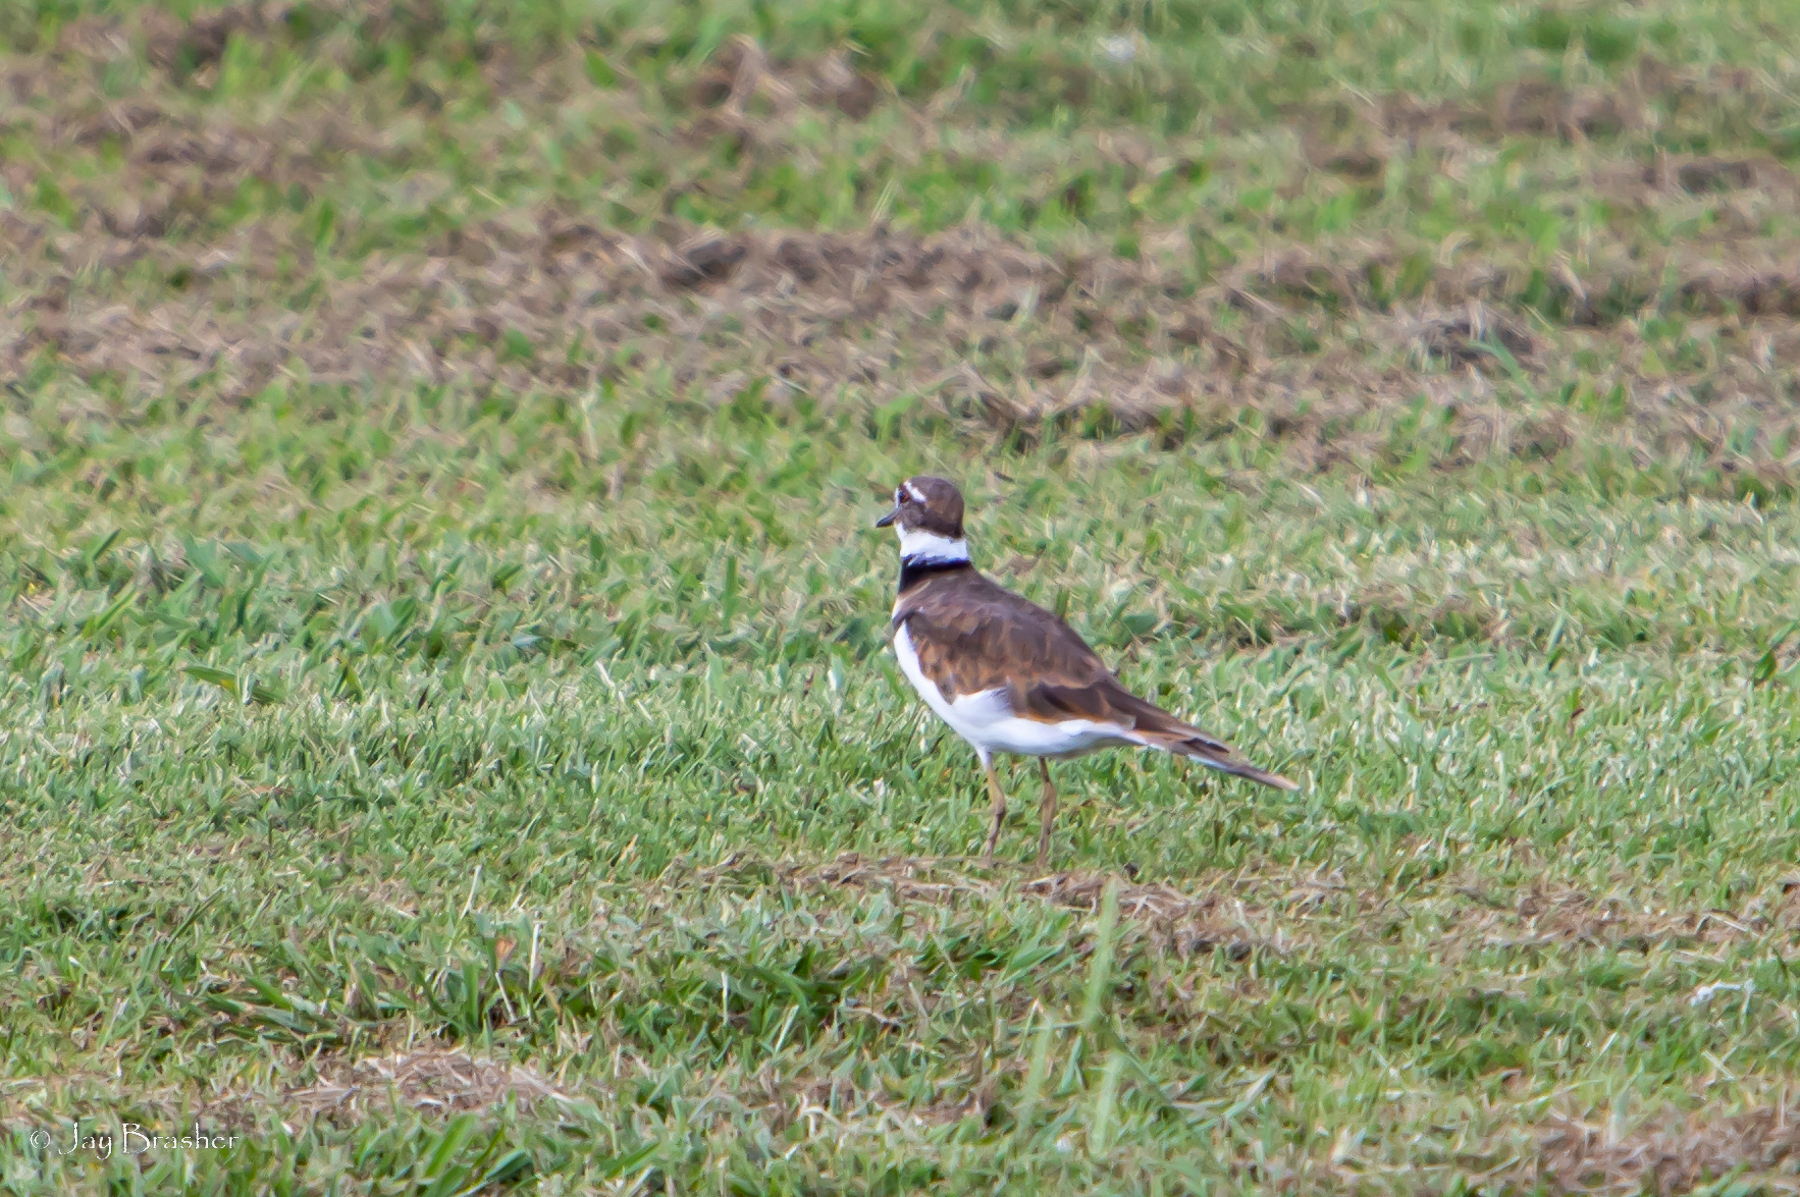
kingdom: Animalia
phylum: Chordata
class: Aves
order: Charadriiformes
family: Charadriidae
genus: Charadrius
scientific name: Charadrius vociferus
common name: Killdeer
